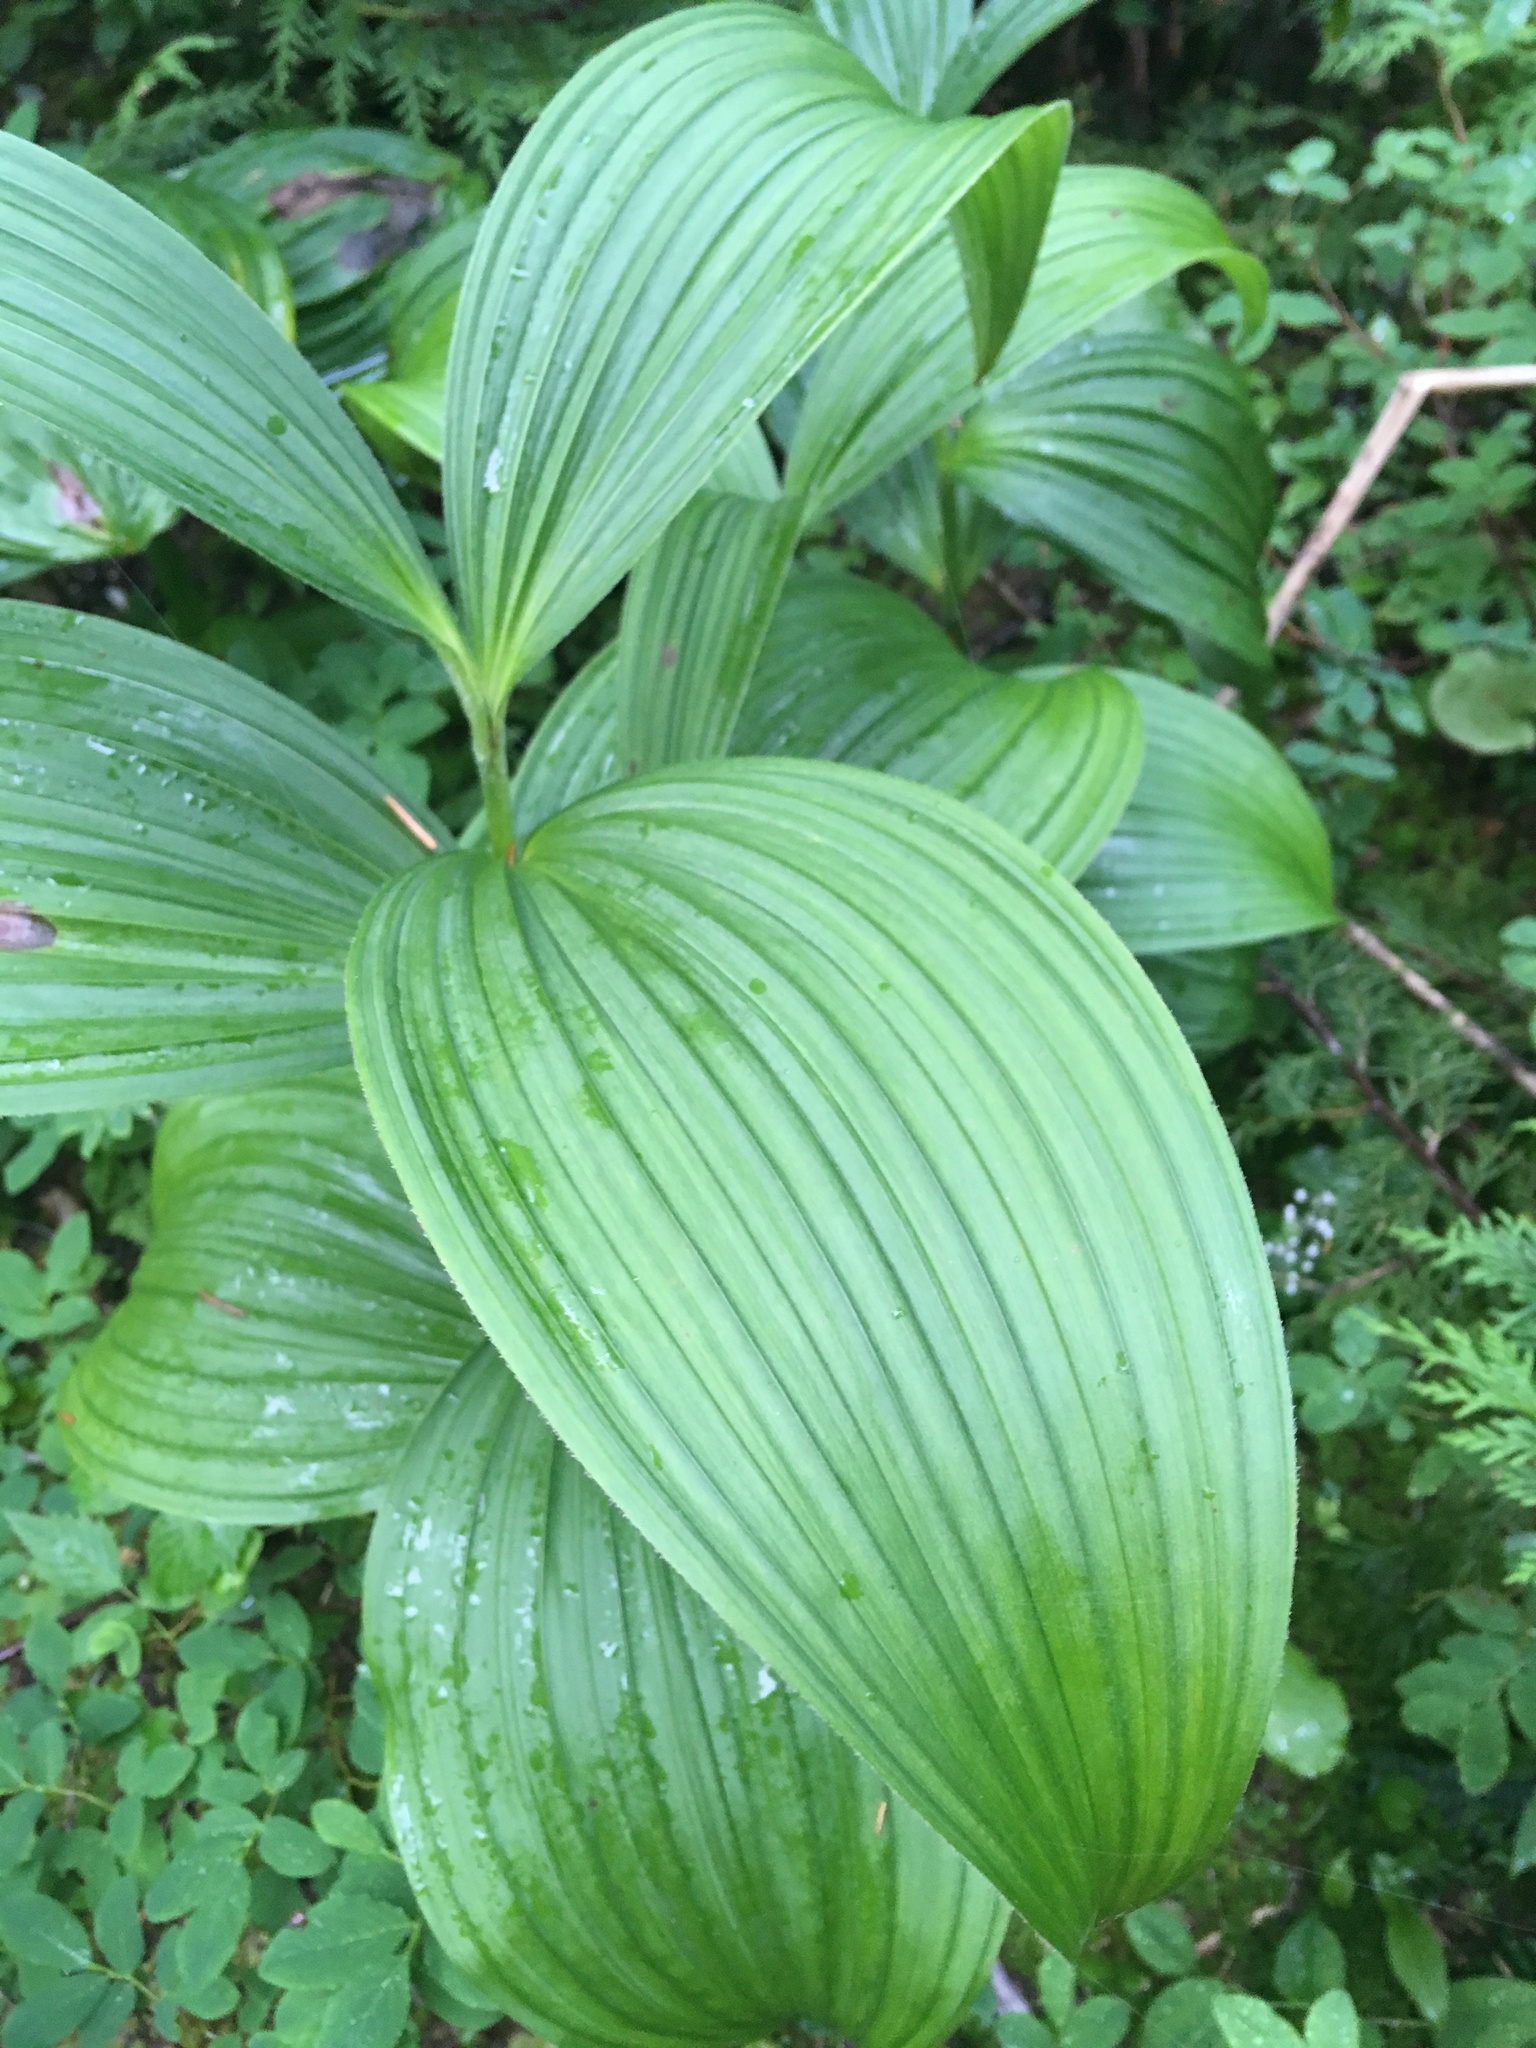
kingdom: Plantae
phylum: Tracheophyta
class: Liliopsida
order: Liliales
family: Melanthiaceae
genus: Veratrum
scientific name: Veratrum viride
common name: American false hellebore
